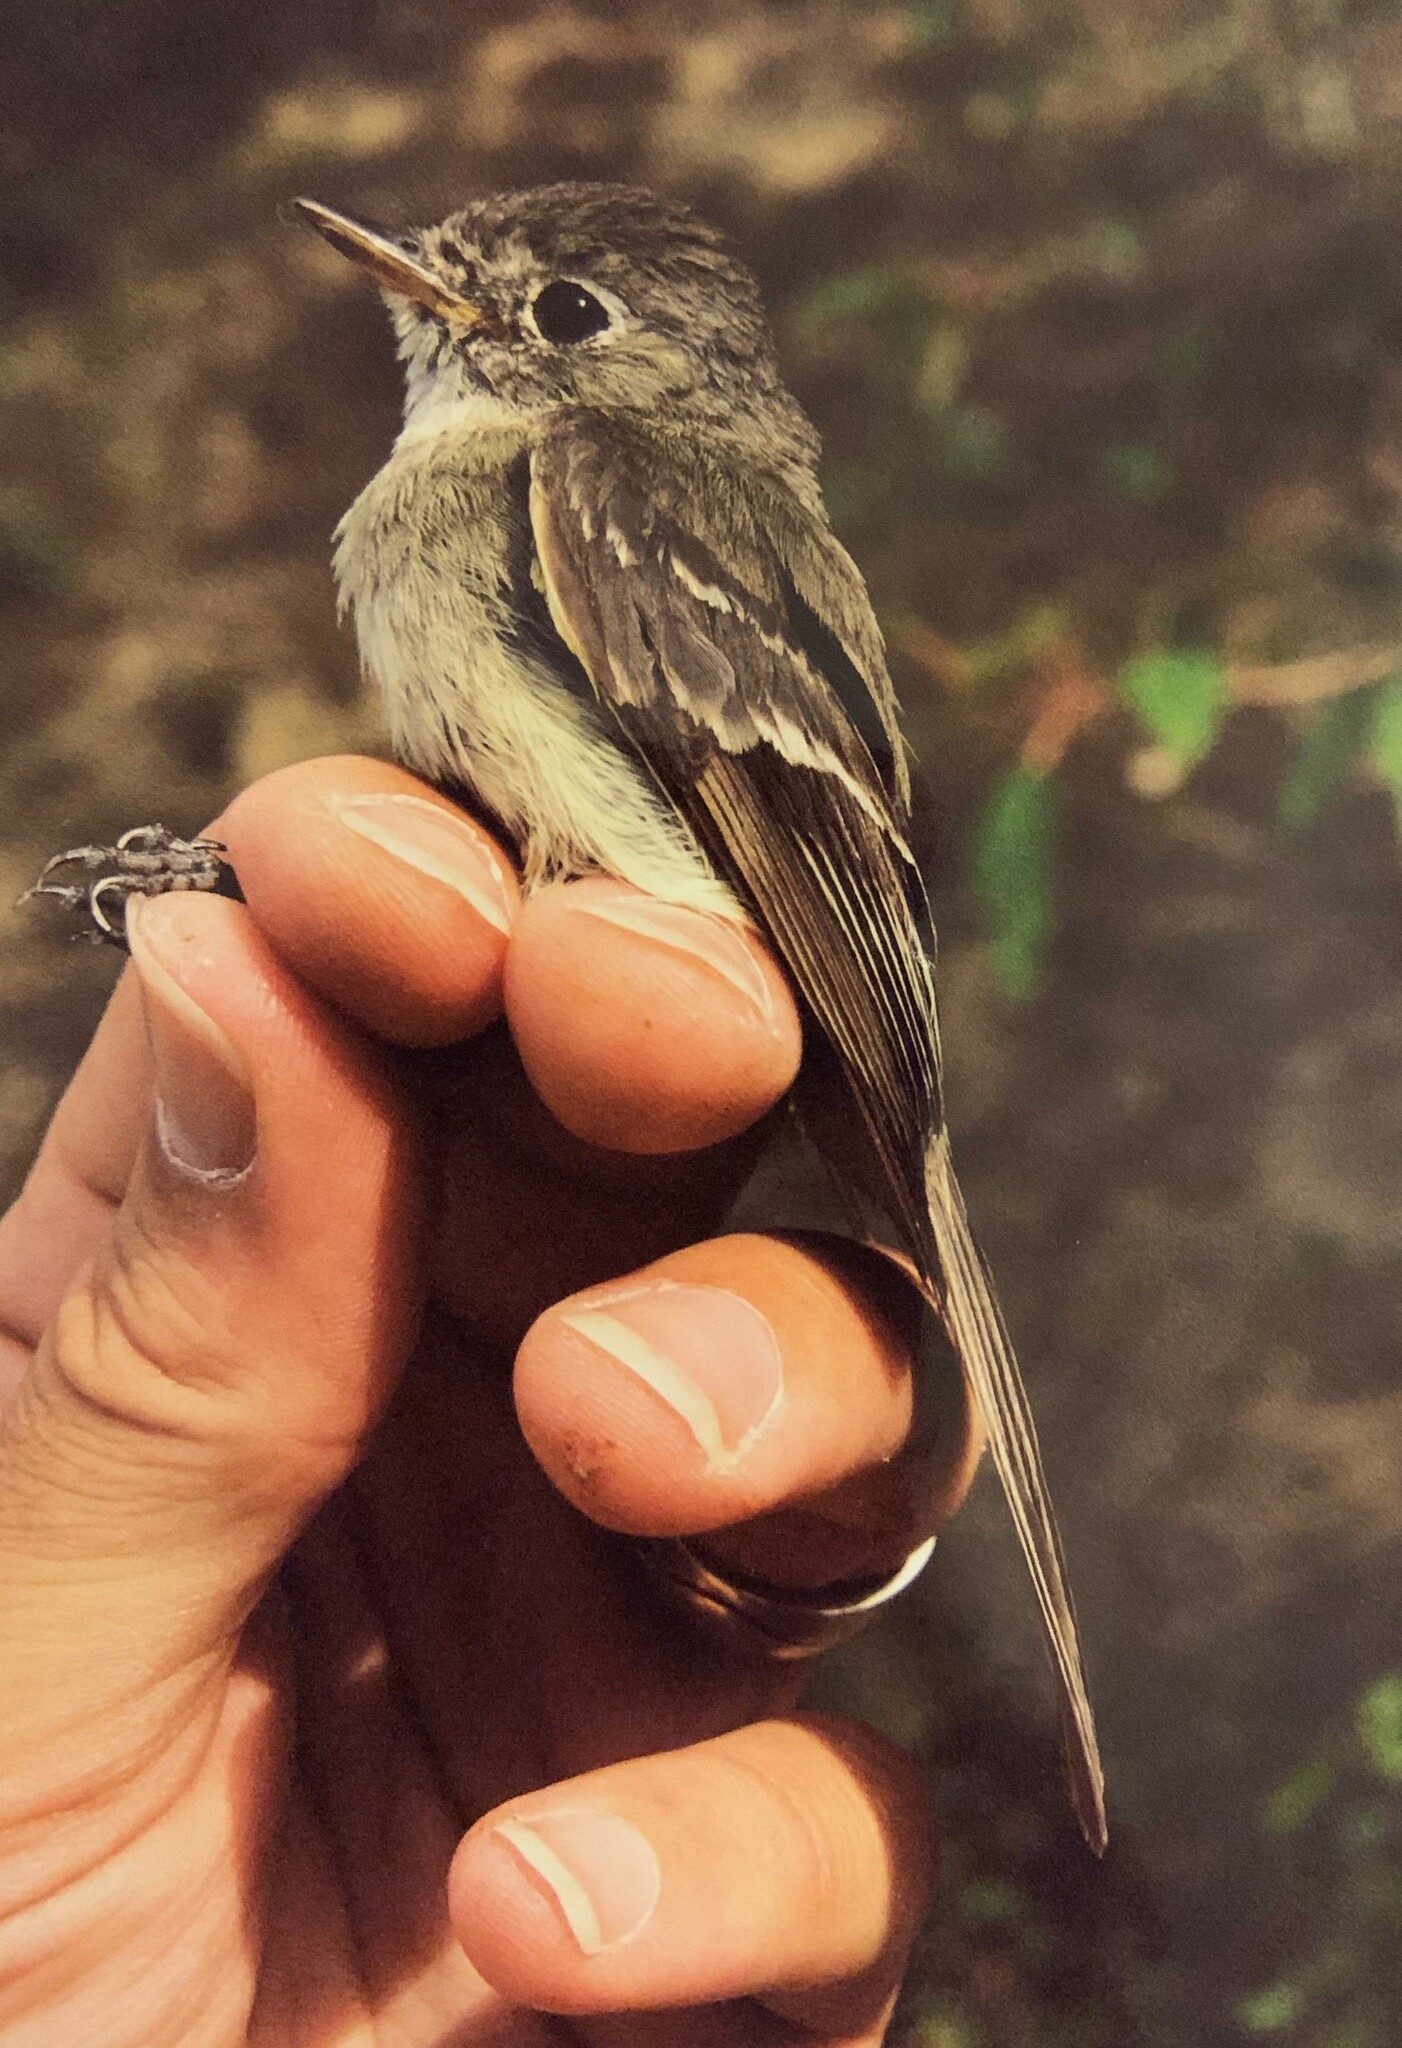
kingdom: Animalia
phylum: Chordata
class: Aves
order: Passeriformes
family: Tyrannidae
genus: Empidonax
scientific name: Empidonax oberholseri
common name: Dusky flycatcher
